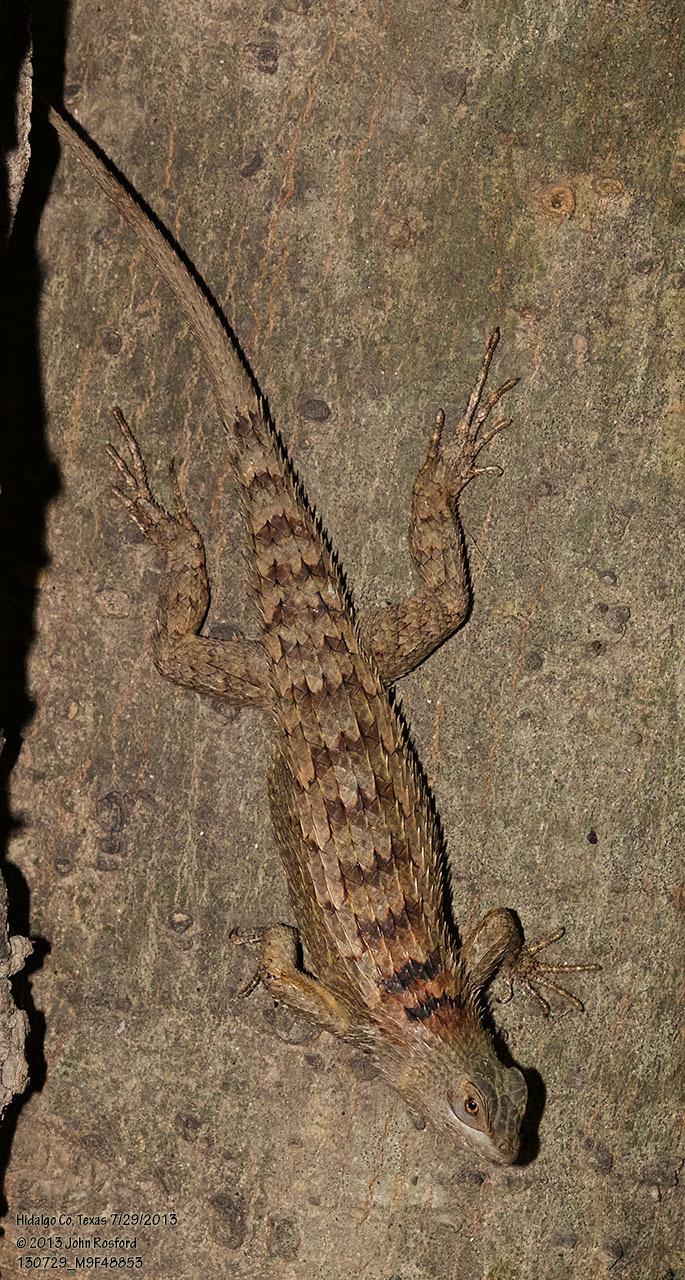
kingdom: Animalia
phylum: Chordata
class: Squamata
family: Phrynosomatidae
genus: Sceloporus
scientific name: Sceloporus olivaceus
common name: Texas spiny lizard
